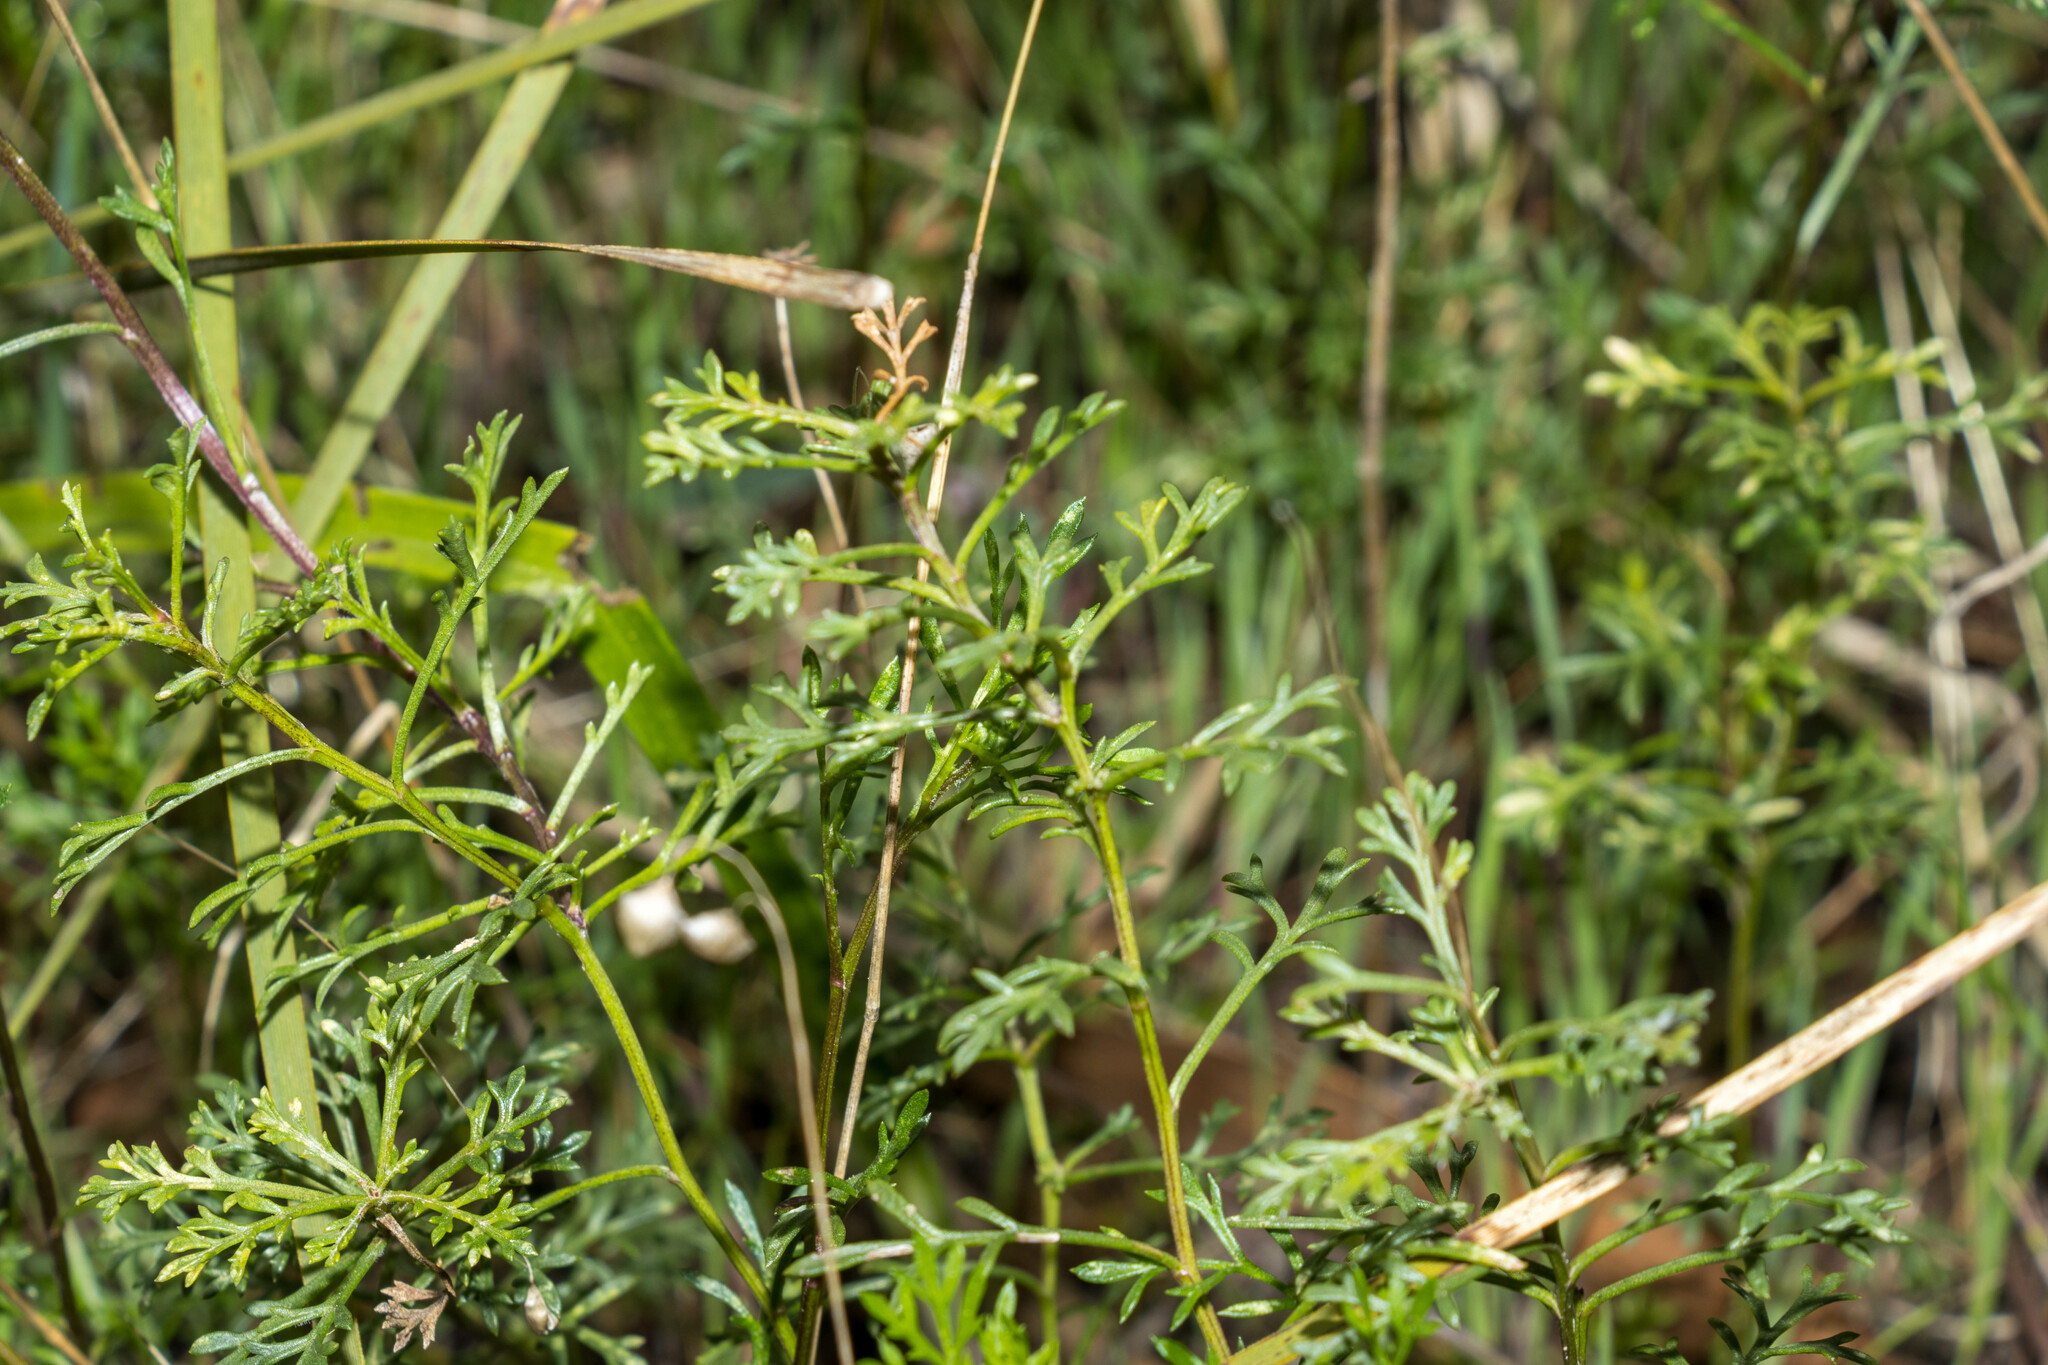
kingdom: Plantae
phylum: Tracheophyta
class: Magnoliopsida
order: Asterales
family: Asteraceae
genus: Brachyscome
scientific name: Brachyscome multifida
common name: Cut-leaf daisy
